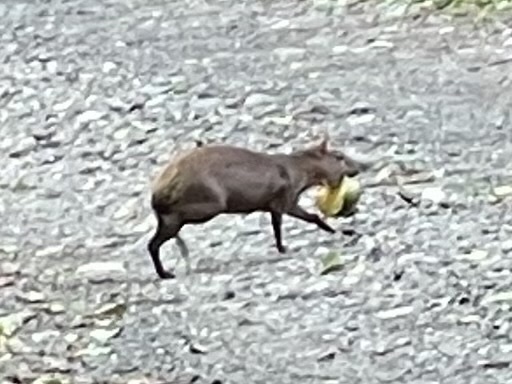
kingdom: Animalia
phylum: Chordata
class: Mammalia
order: Rodentia
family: Dasyproctidae
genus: Dasyprocta
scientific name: Dasyprocta punctata
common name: Central american agouti
